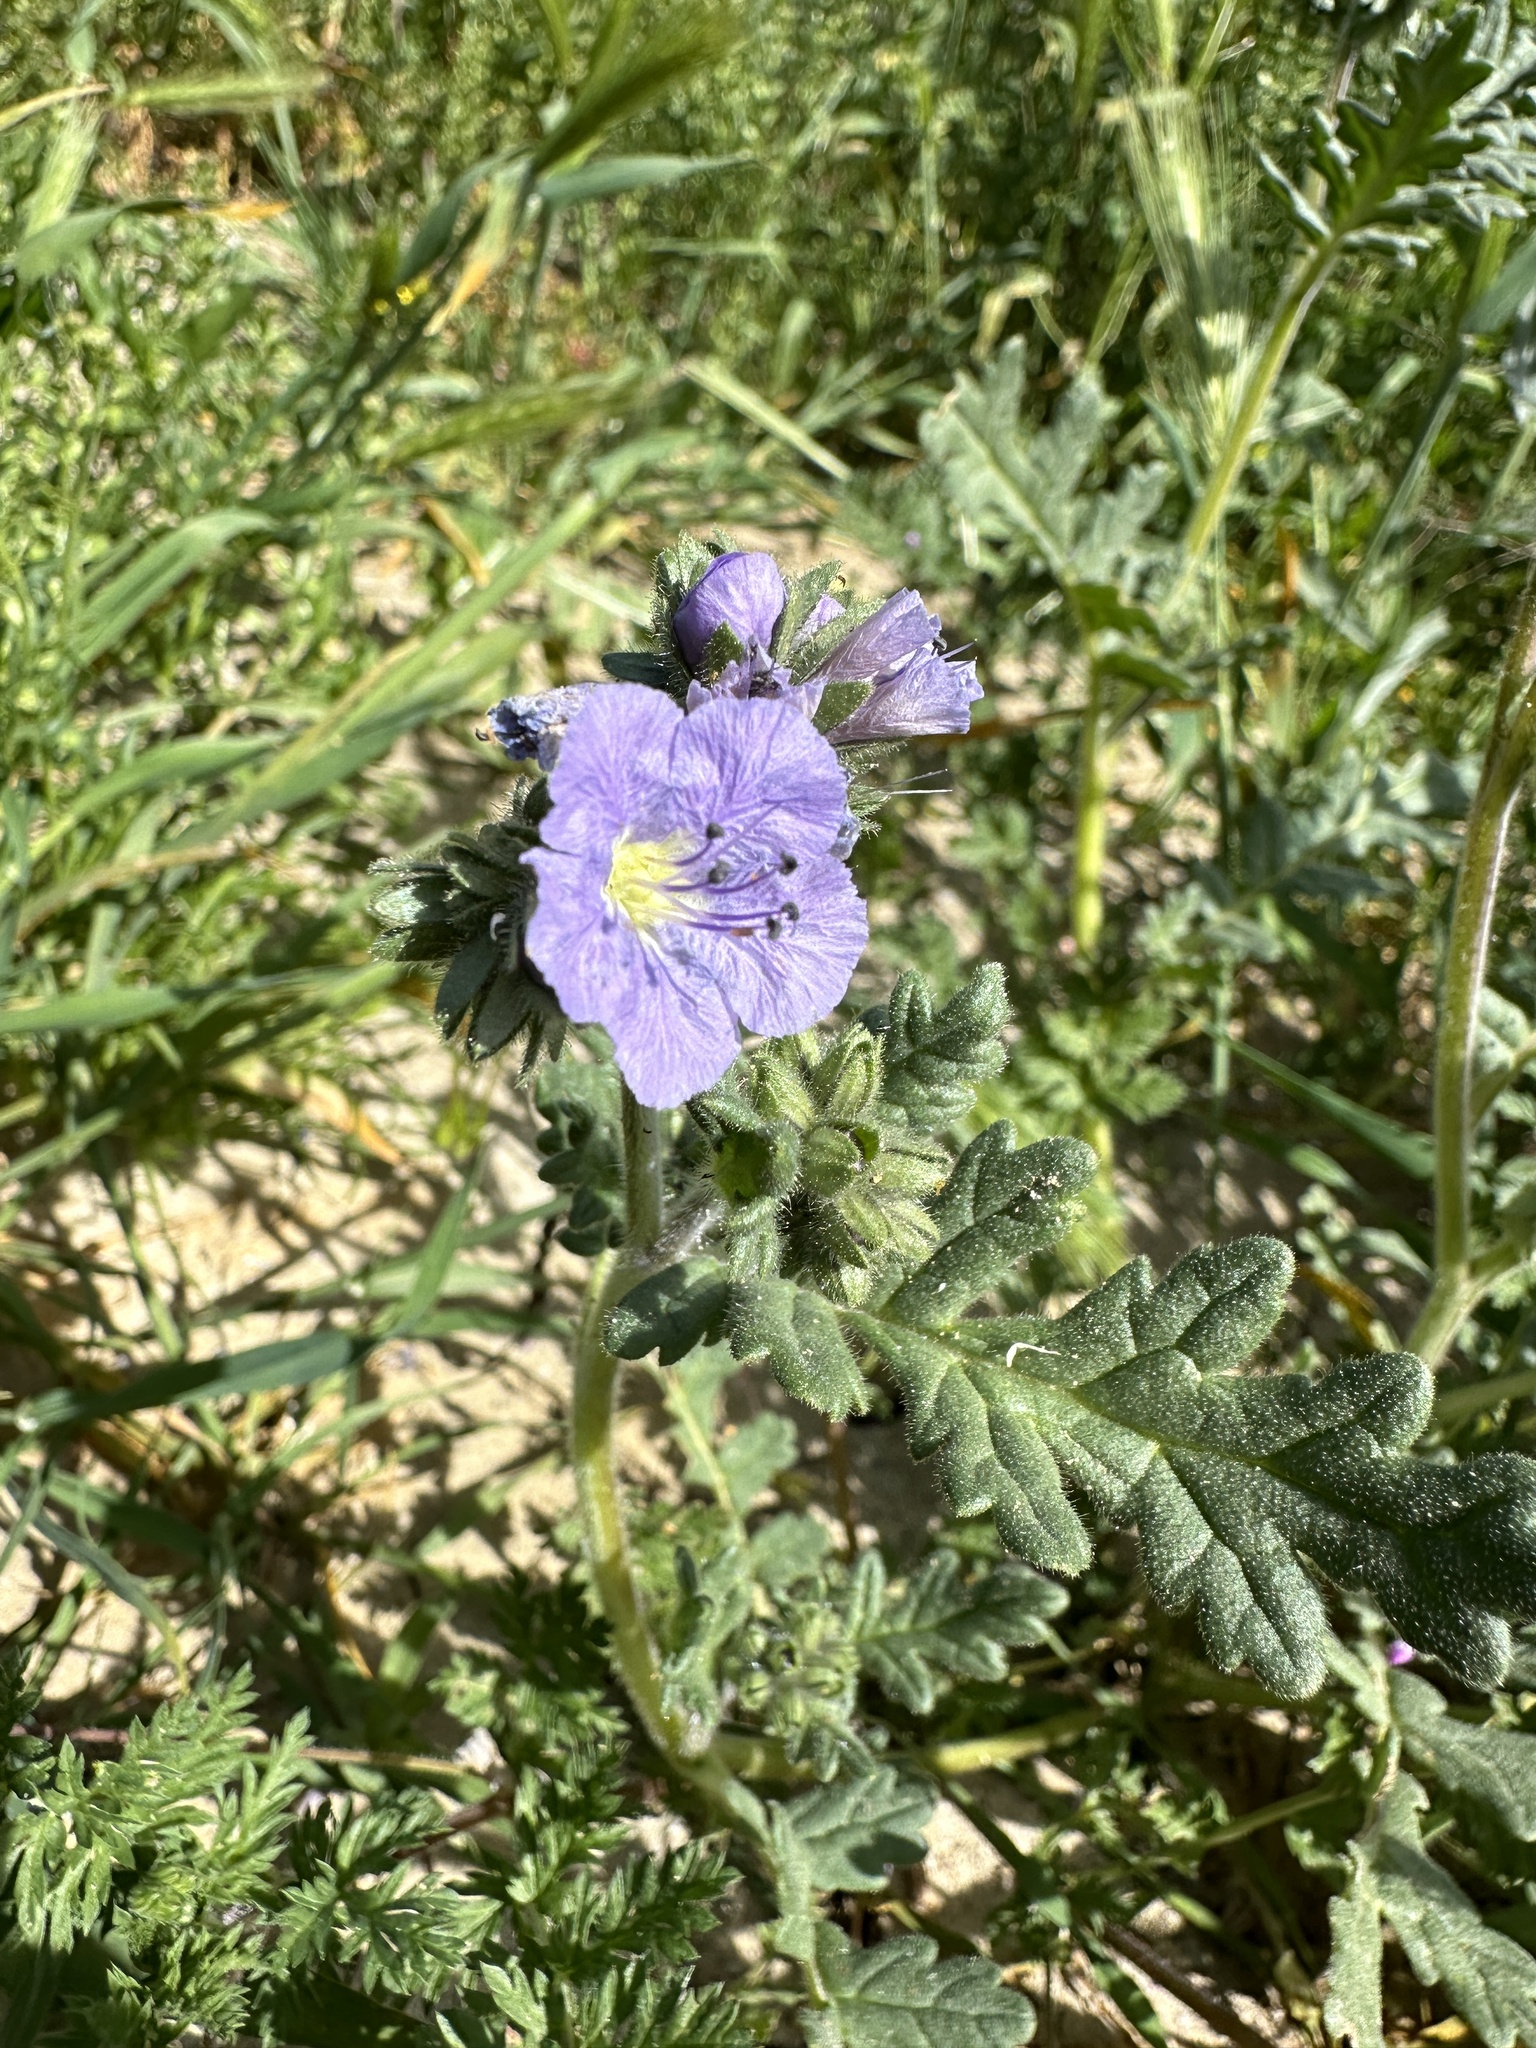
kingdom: Plantae
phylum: Tracheophyta
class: Magnoliopsida
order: Boraginales
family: Hydrophyllaceae
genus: Phacelia
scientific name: Phacelia ciliata
